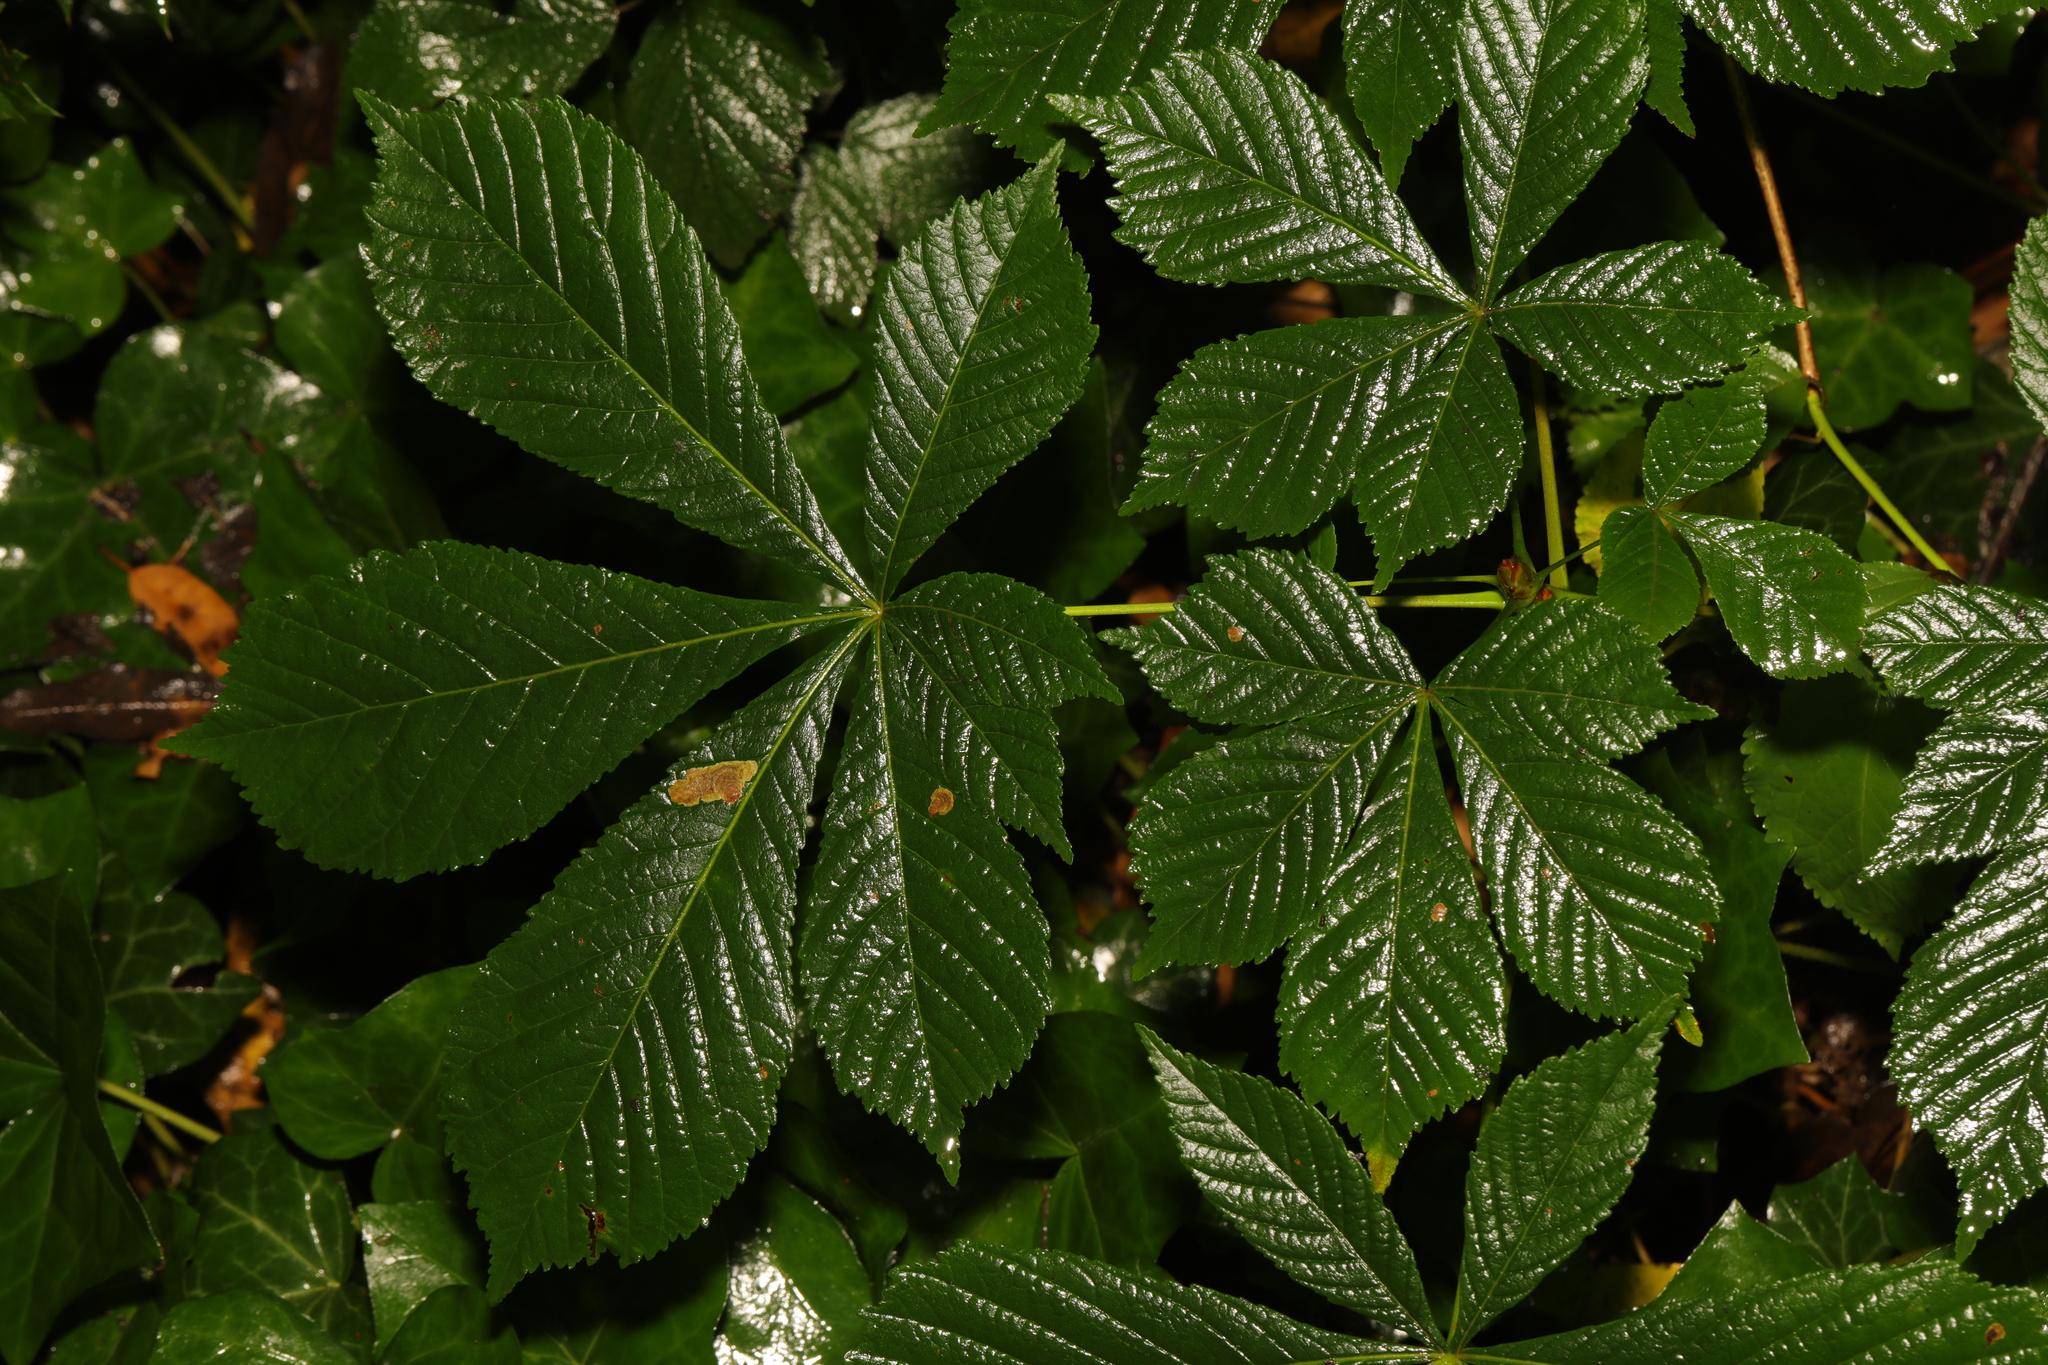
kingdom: Plantae
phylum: Tracheophyta
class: Magnoliopsida
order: Sapindales
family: Sapindaceae
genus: Aesculus
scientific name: Aesculus hippocastanum
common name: Horse-chestnut
